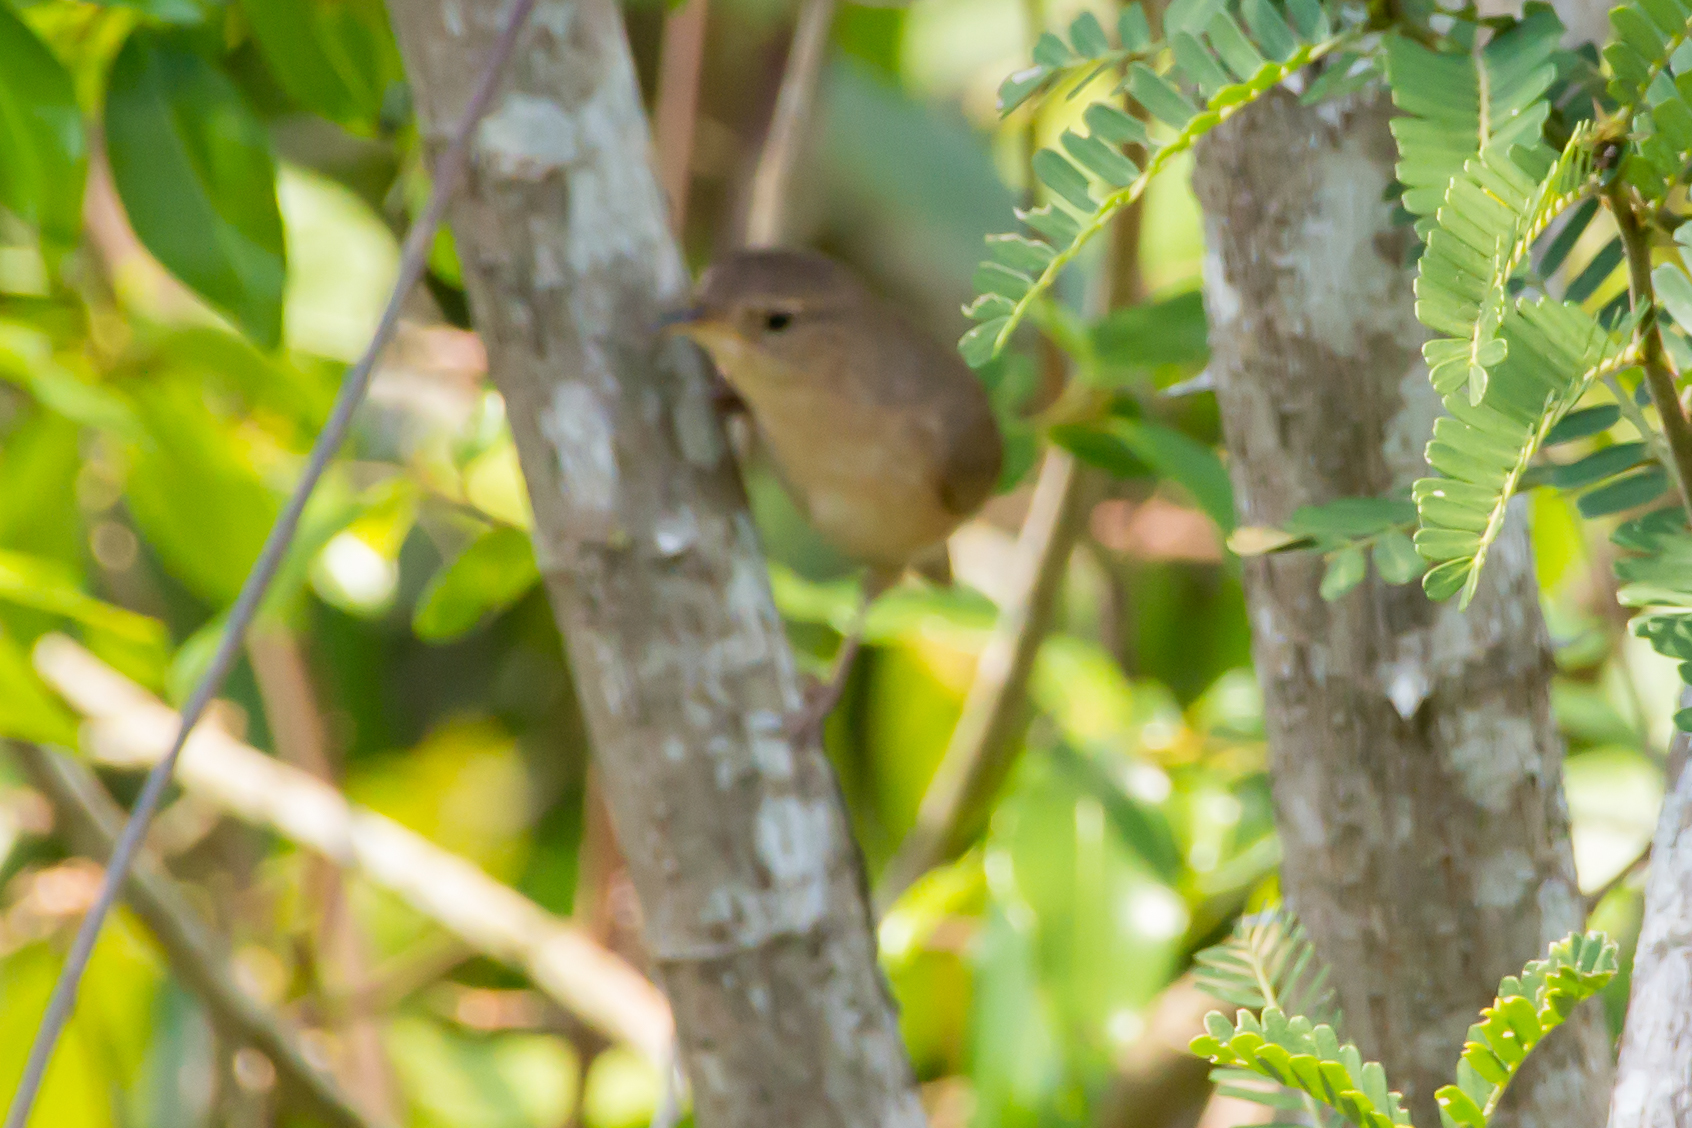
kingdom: Animalia
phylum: Chordata
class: Aves
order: Passeriformes
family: Troglodytidae
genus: Troglodytes
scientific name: Troglodytes aedon
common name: House wren
